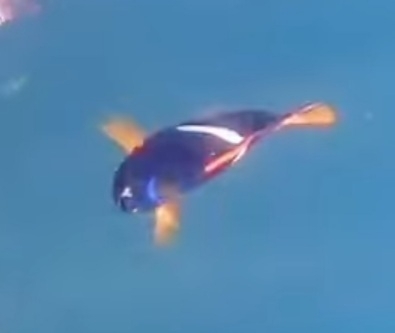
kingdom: Animalia
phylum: Chordata
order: Perciformes
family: Pomacanthidae
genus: Holacanthus
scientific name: Holacanthus passer
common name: King angelfish
